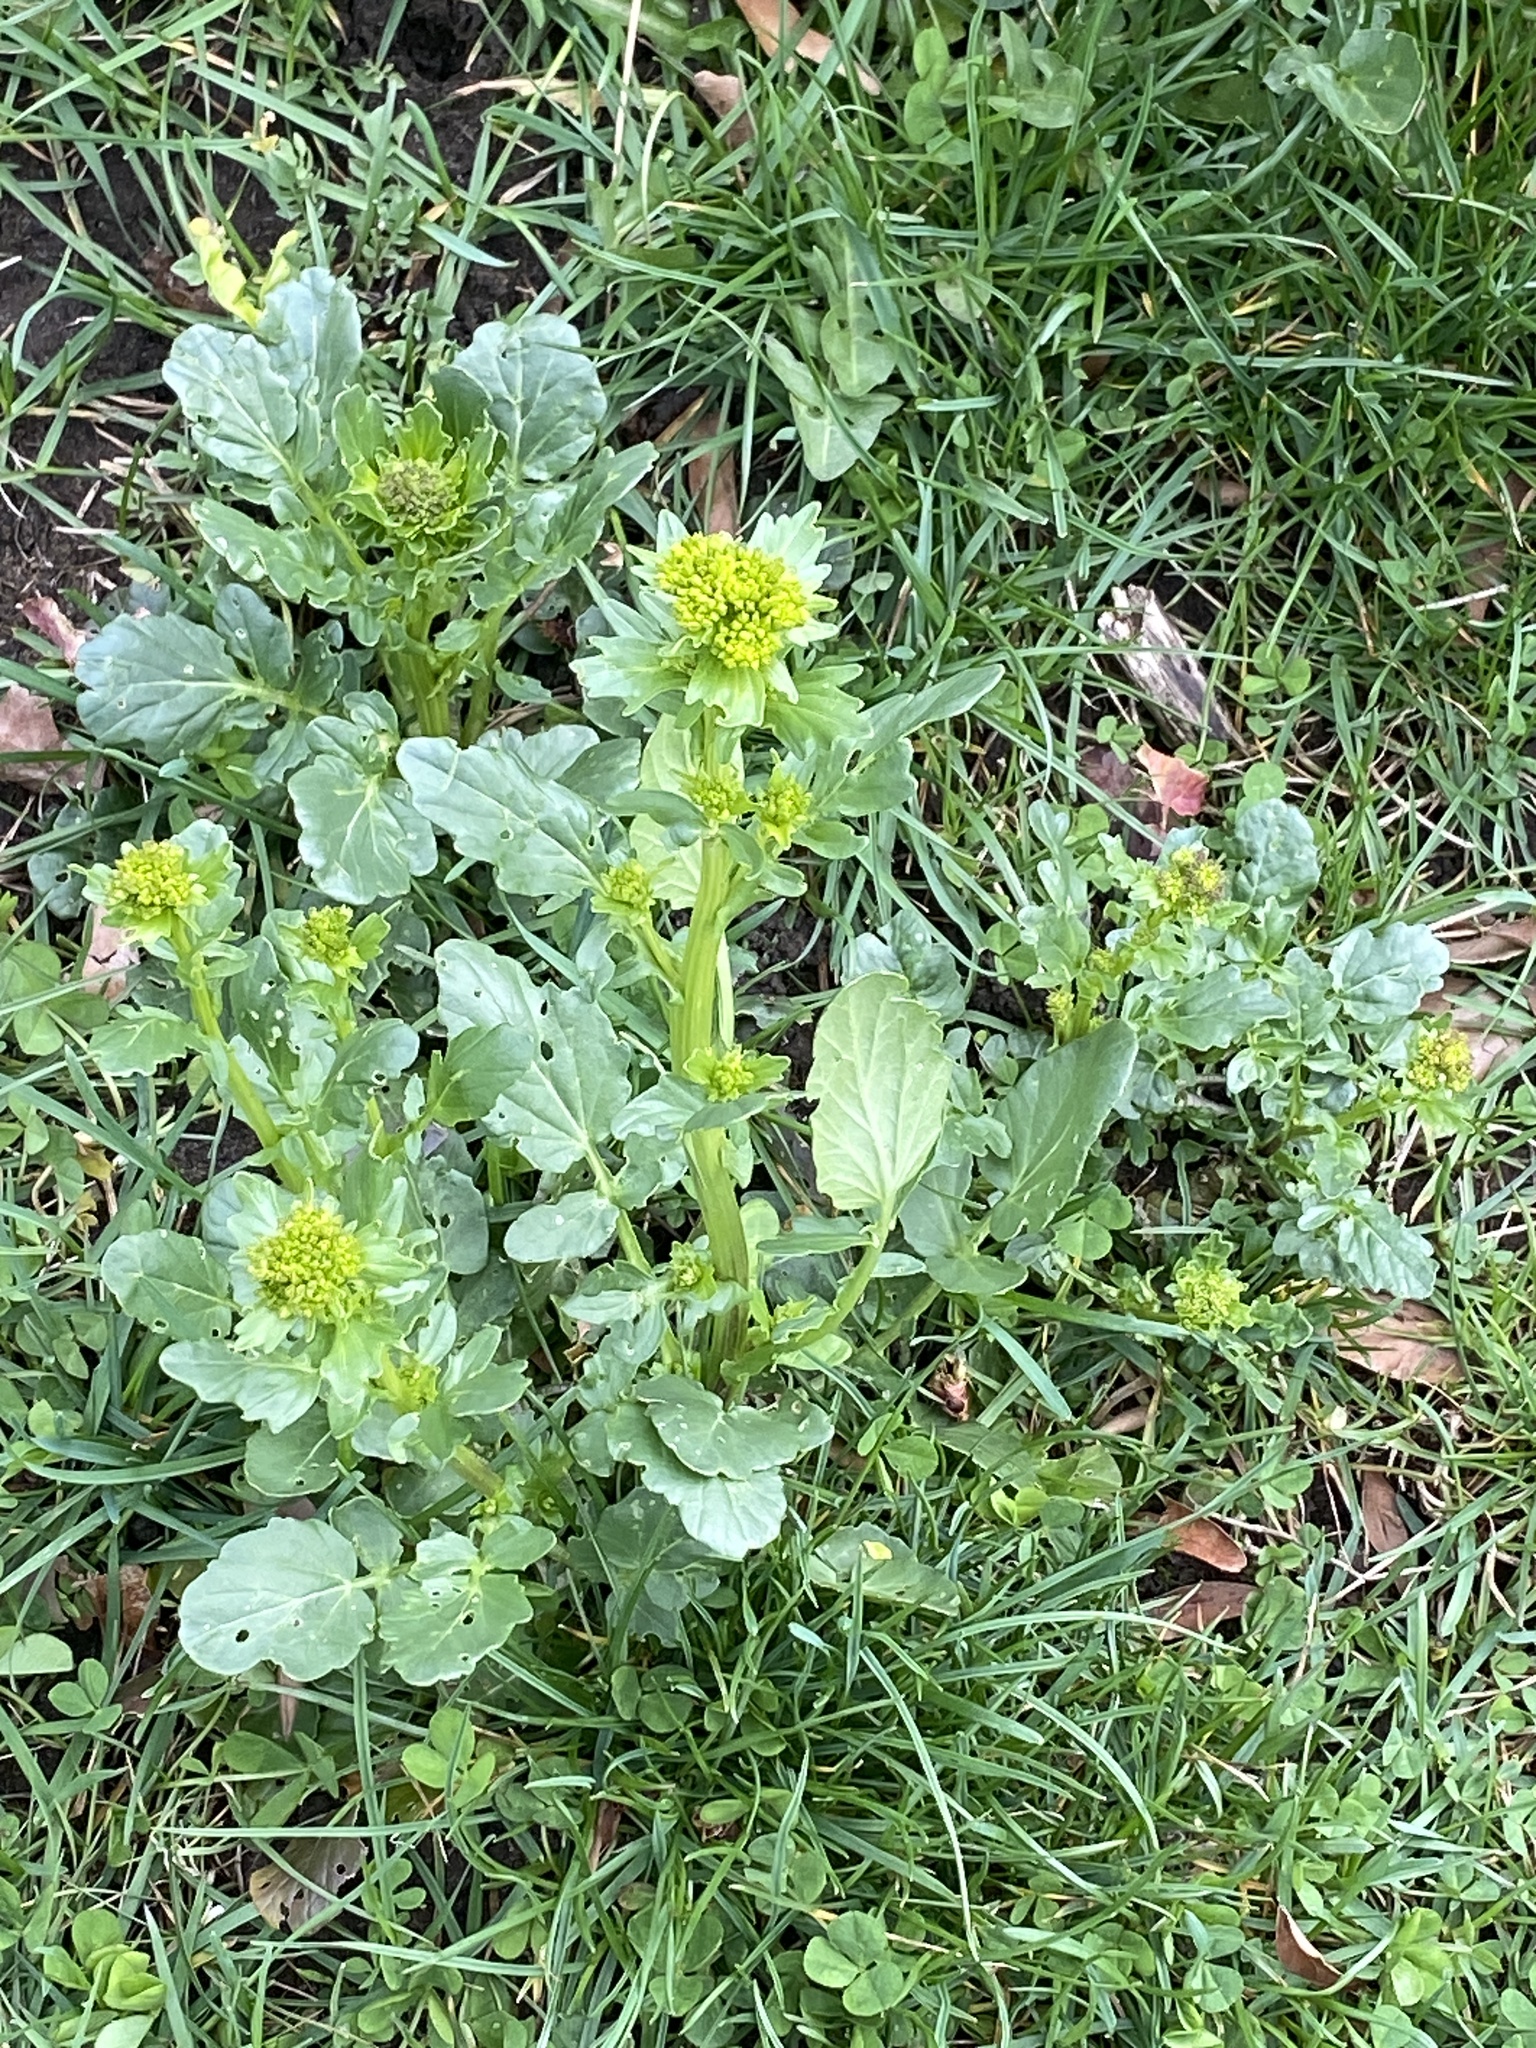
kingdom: Plantae
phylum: Tracheophyta
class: Magnoliopsida
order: Brassicales
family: Brassicaceae
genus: Barbarea
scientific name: Barbarea vulgaris
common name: Cressy-greens
